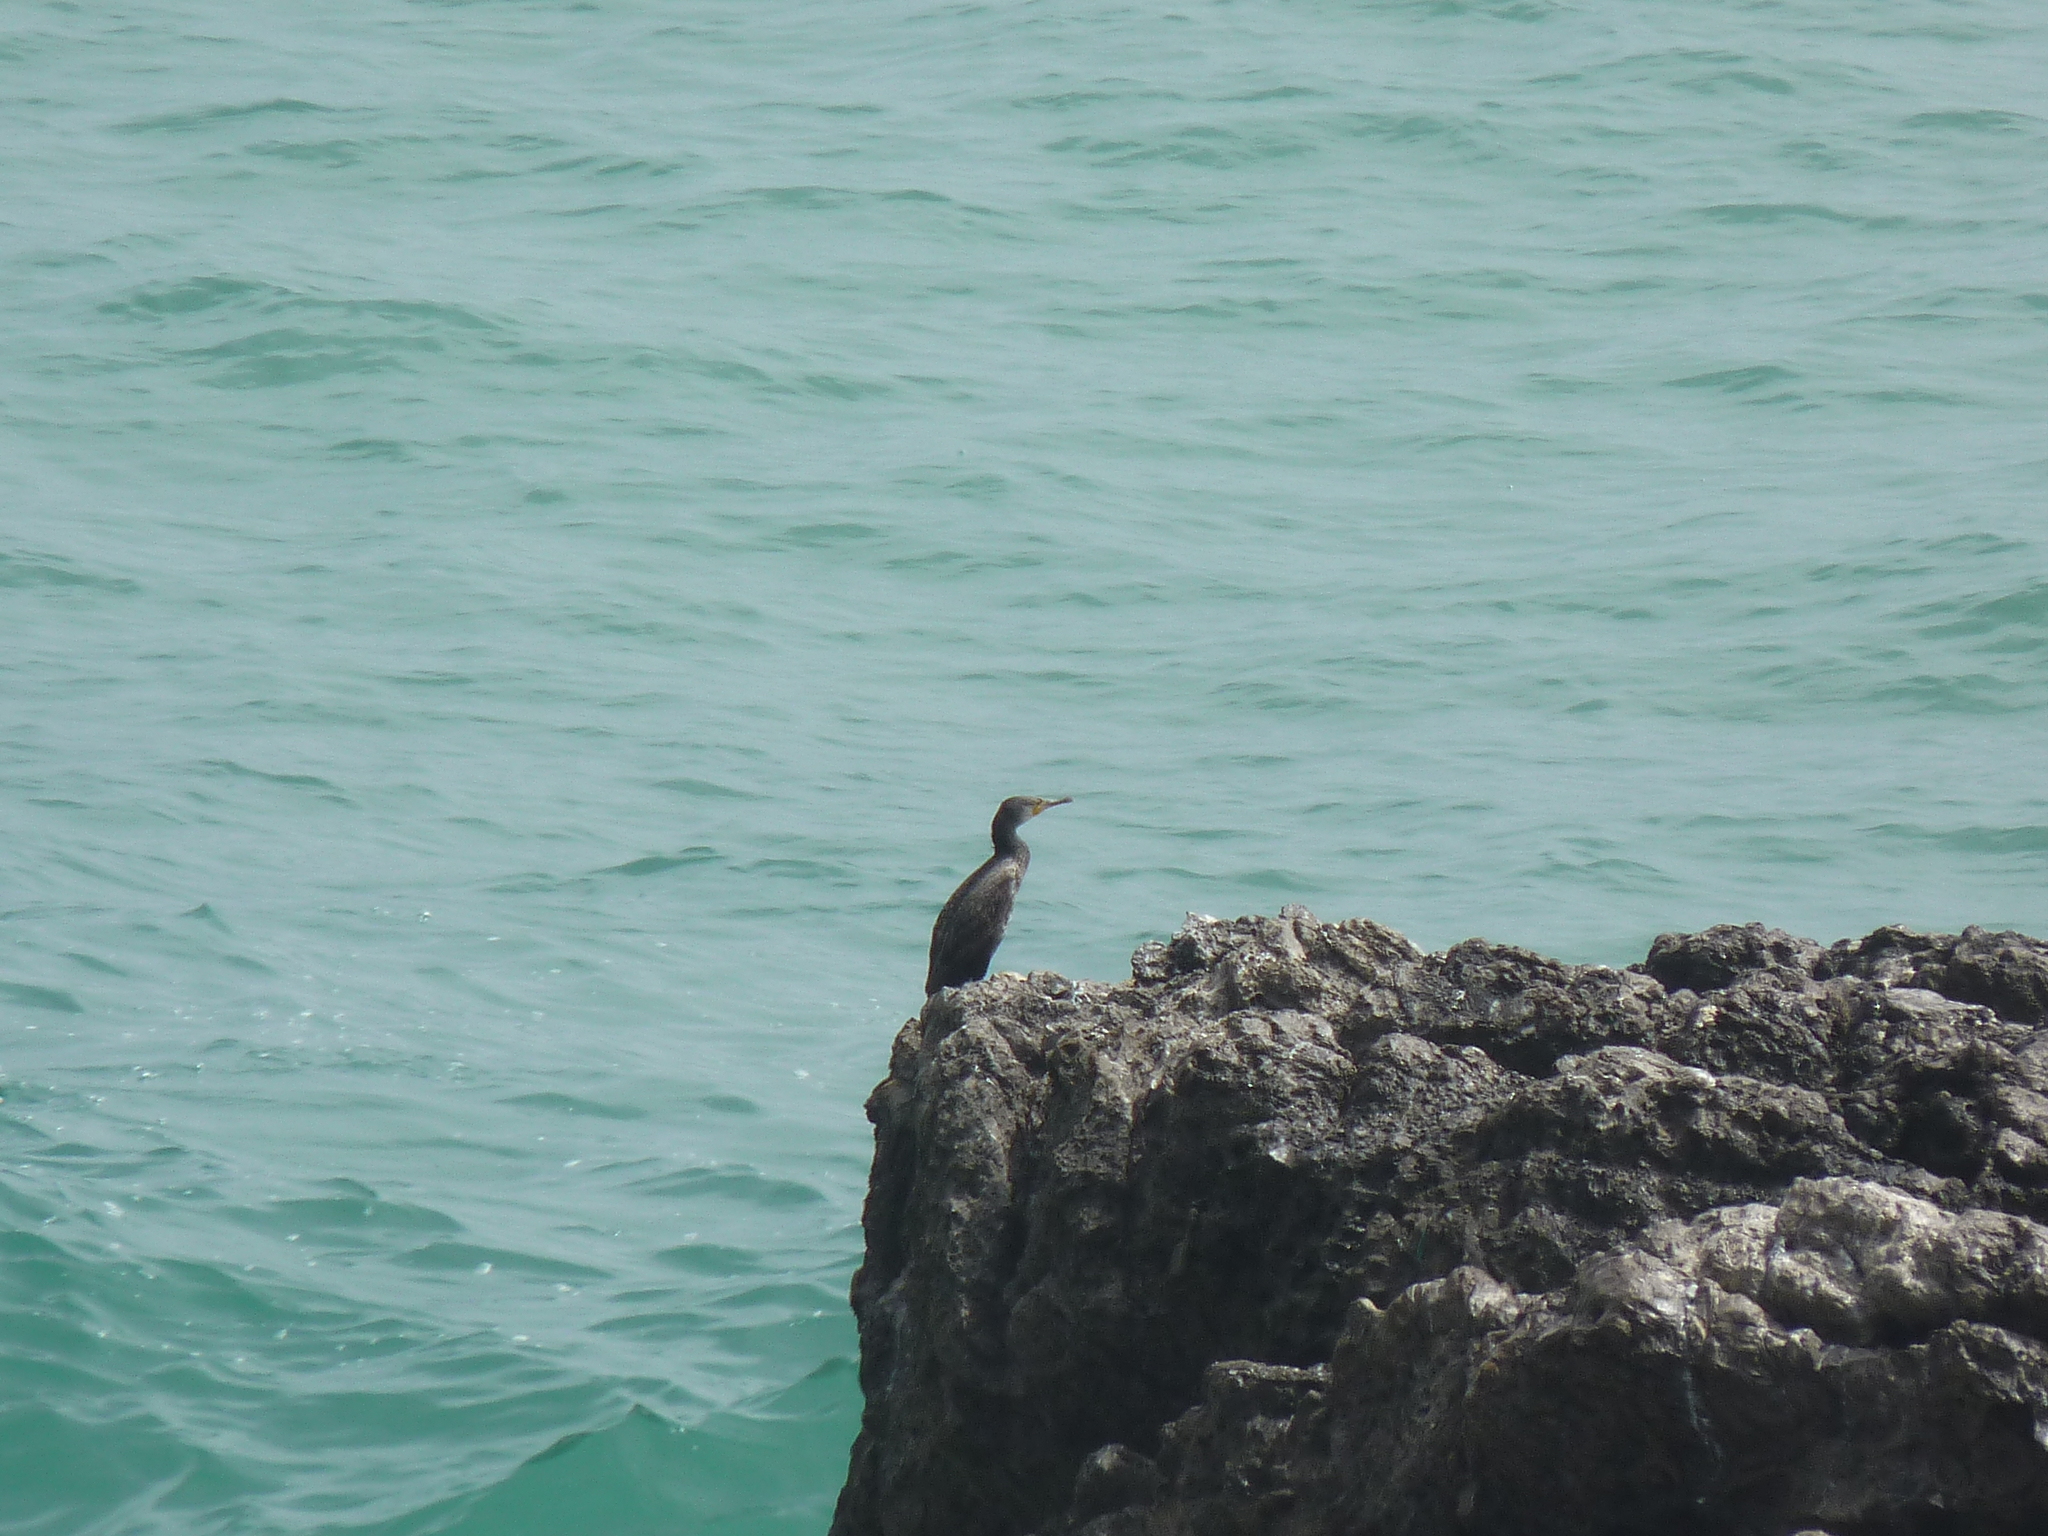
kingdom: Animalia
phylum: Chordata
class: Aves
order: Suliformes
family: Phalacrocoracidae
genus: Phalacrocorax
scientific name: Phalacrocorax carbo
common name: Great cormorant
